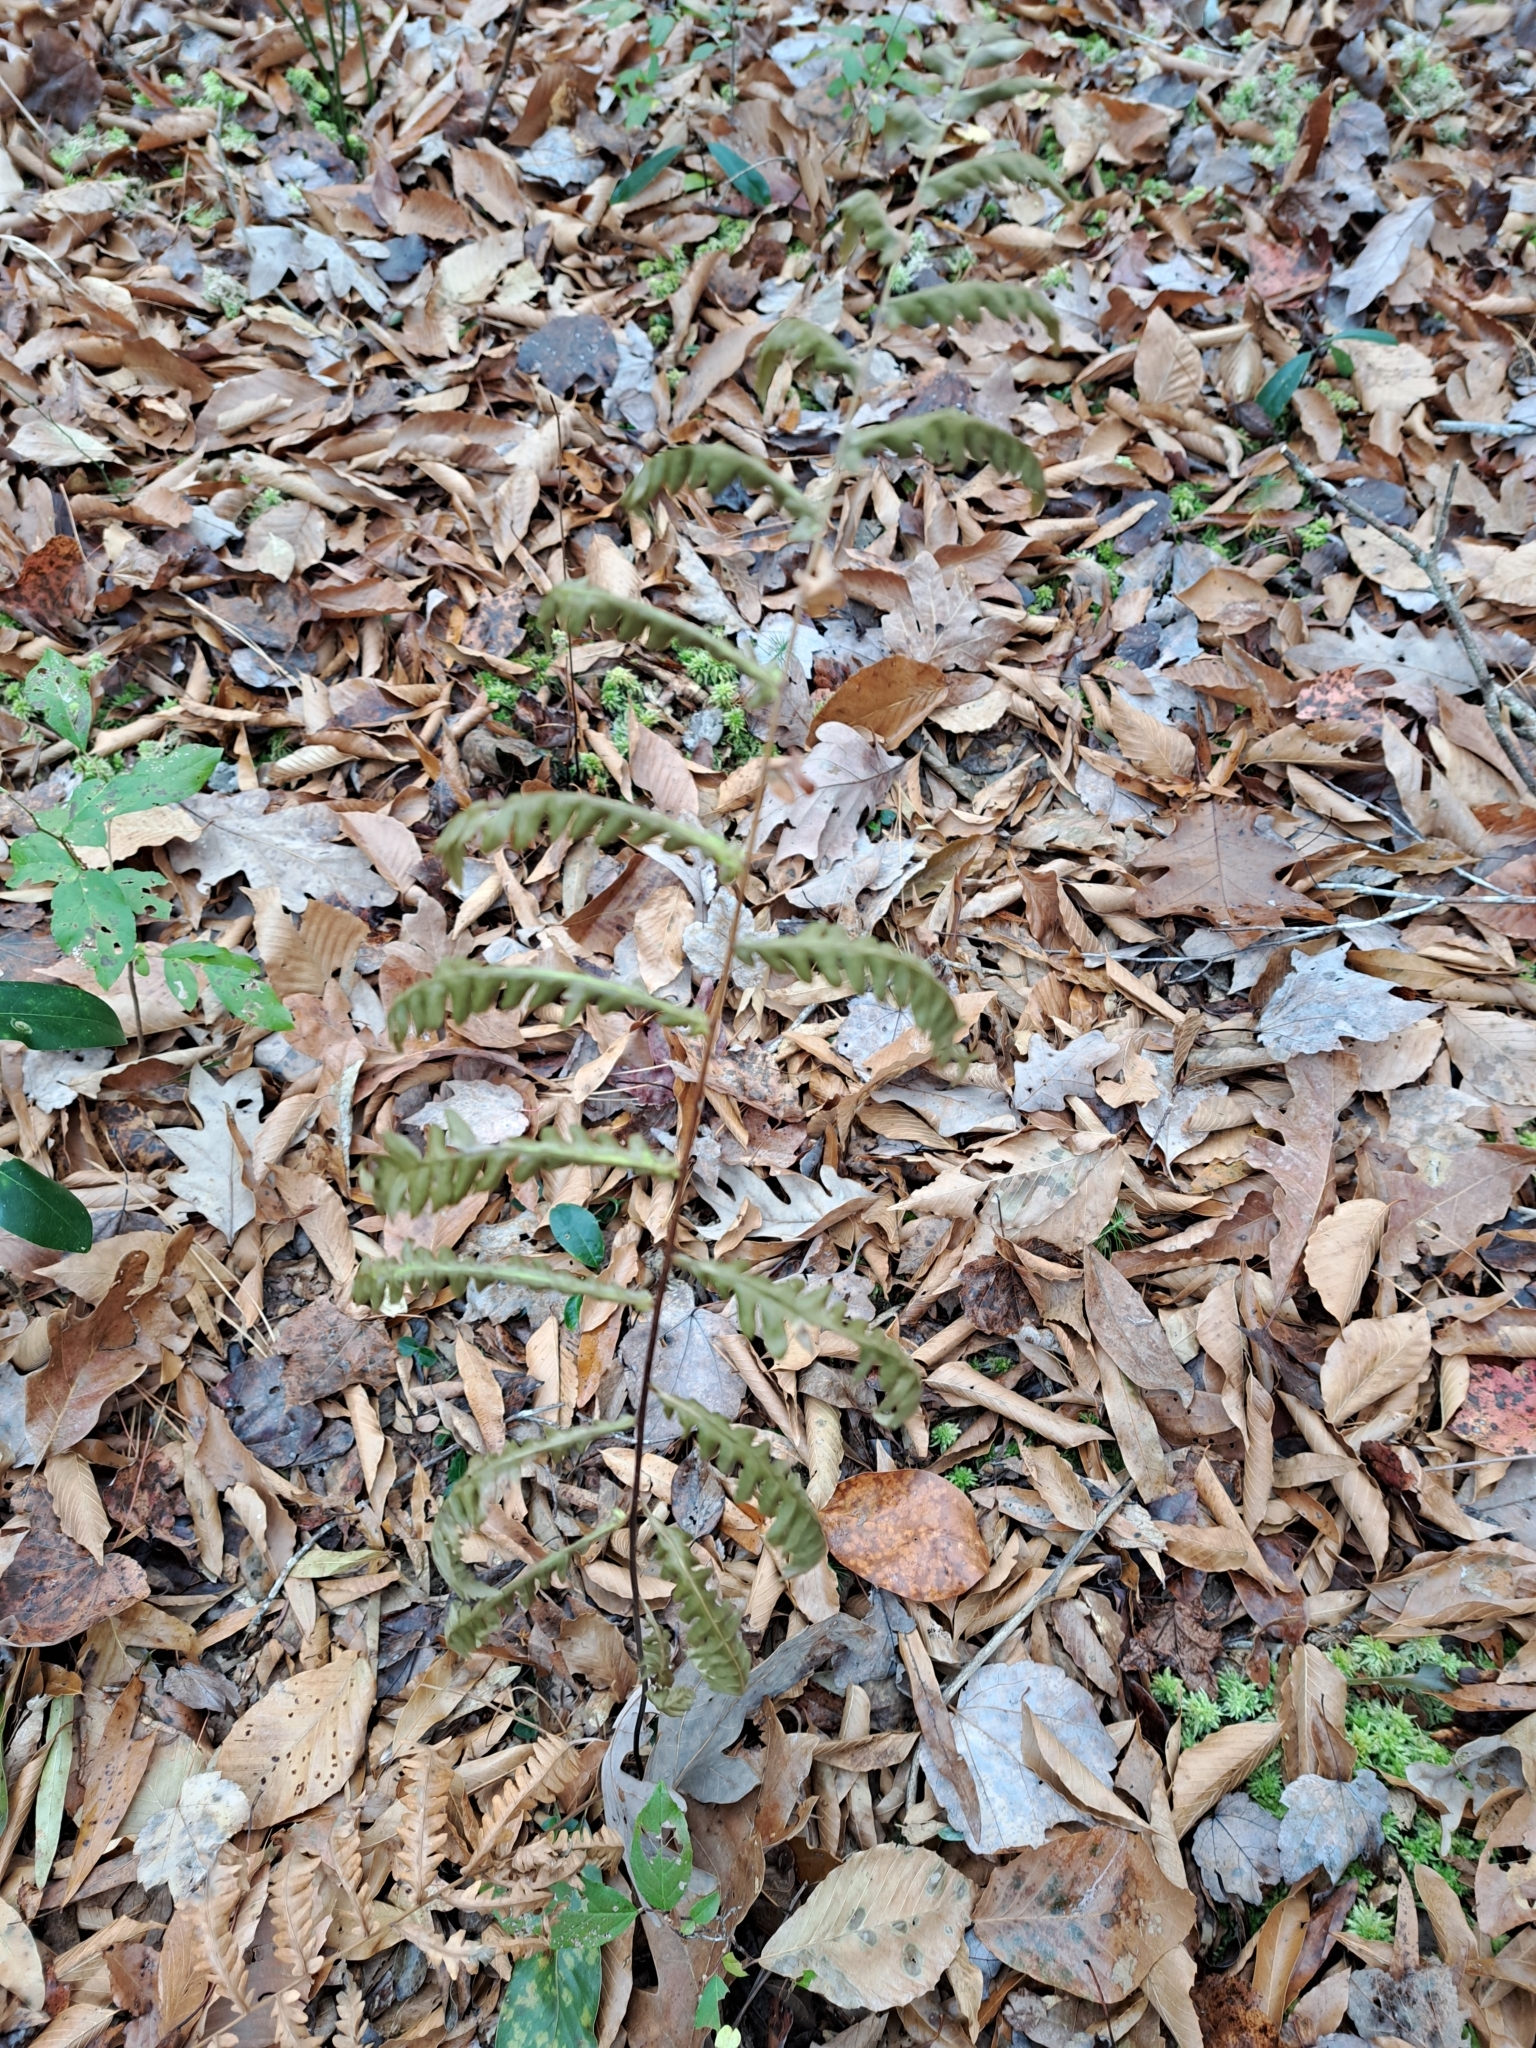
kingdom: Plantae
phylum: Tracheophyta
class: Polypodiopsida
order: Polypodiales
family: Blechnaceae
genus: Anchistea
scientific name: Anchistea virginica
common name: Virginia chain fern
